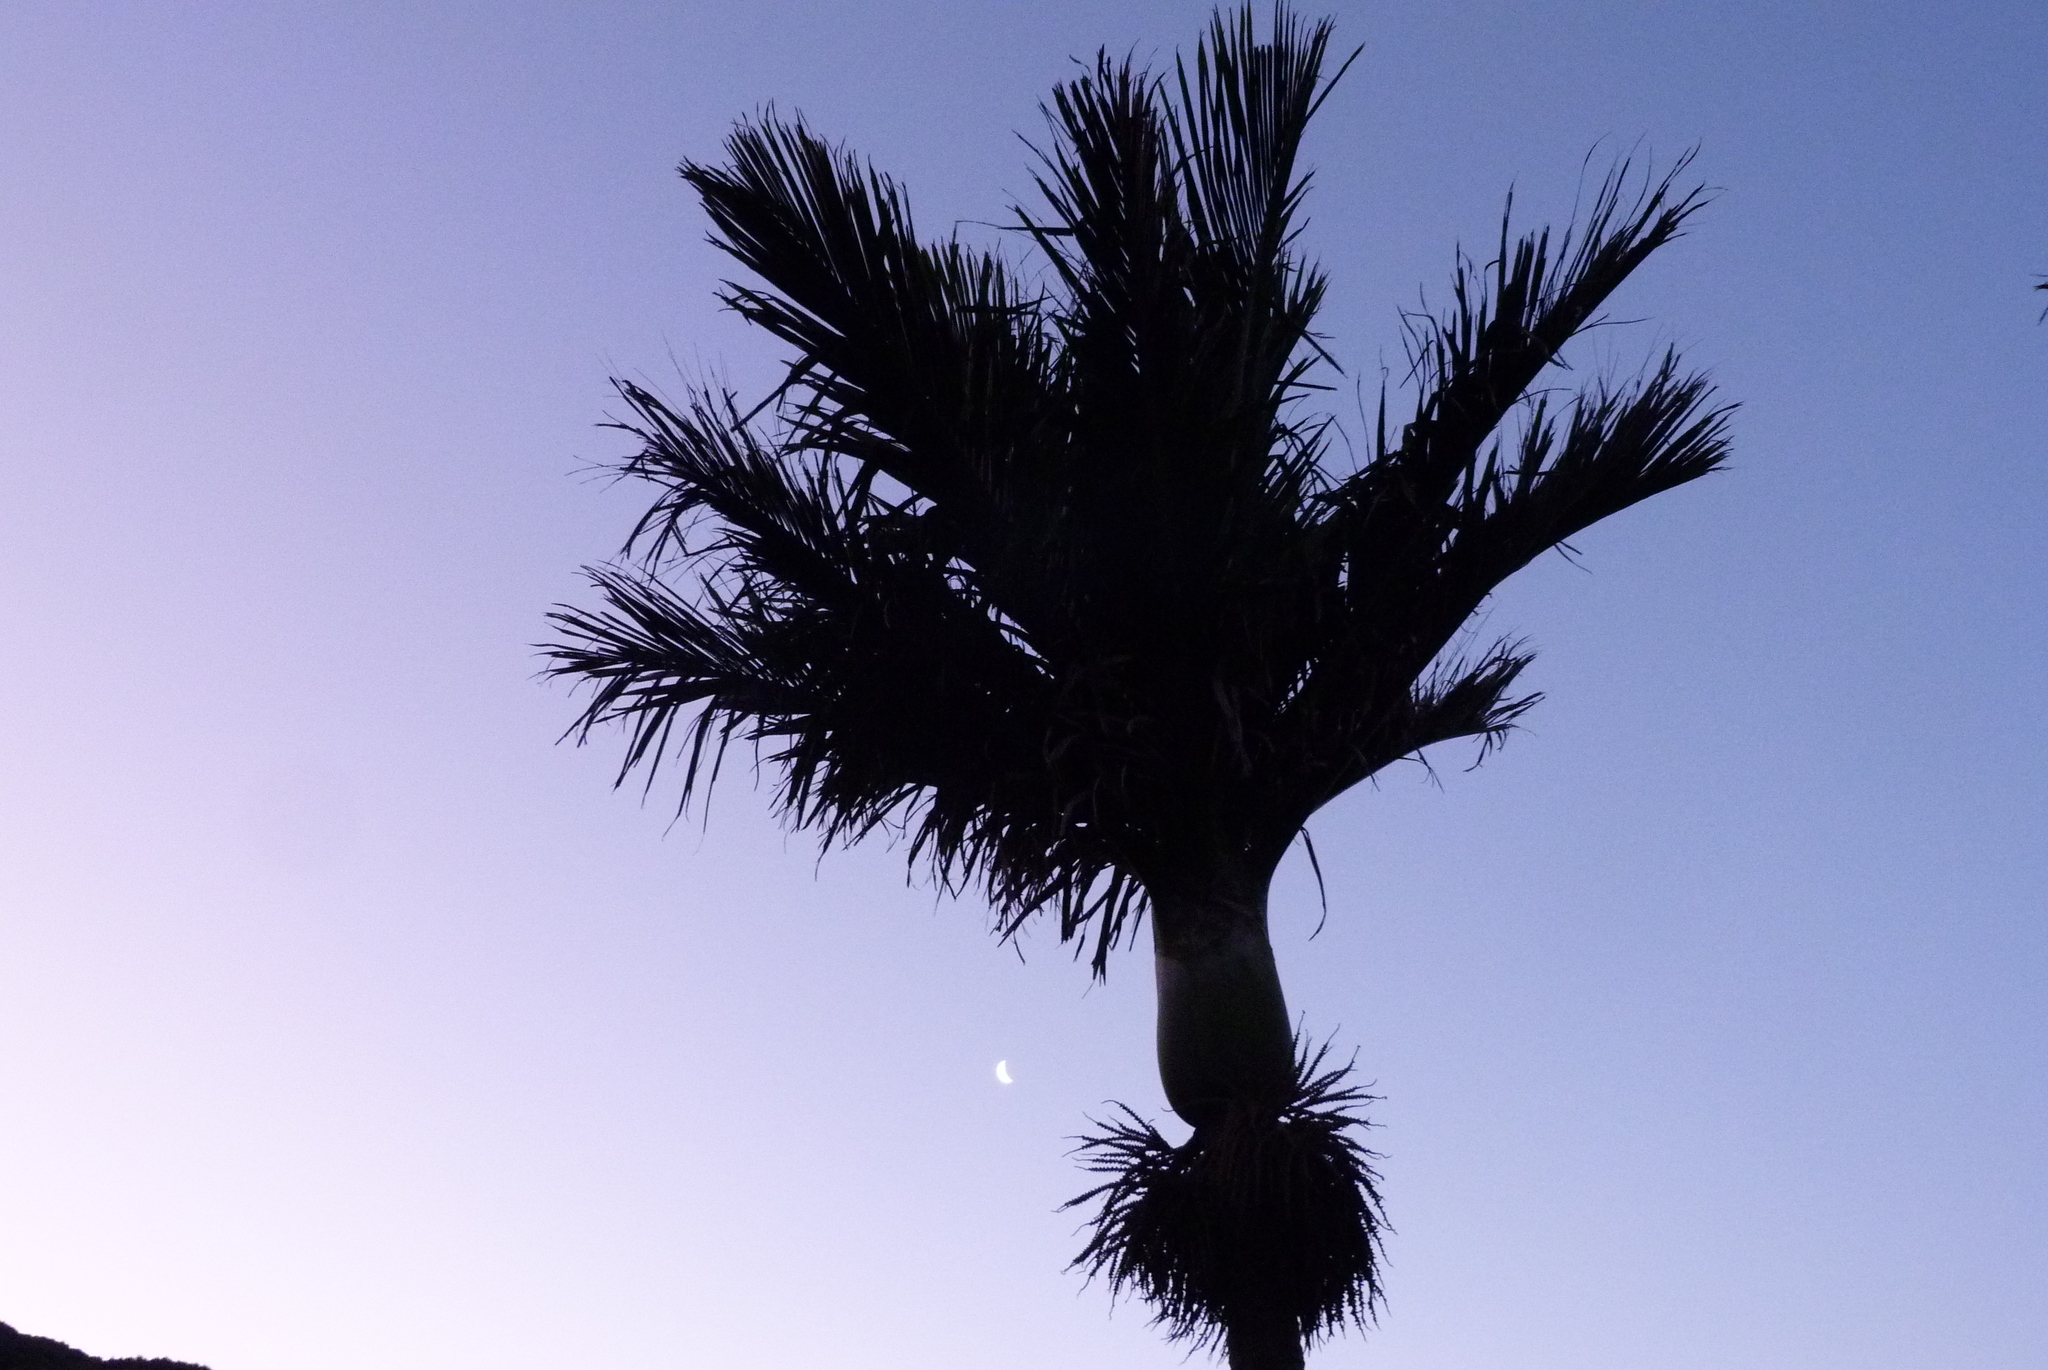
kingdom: Plantae
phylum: Tracheophyta
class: Liliopsida
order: Arecales
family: Arecaceae
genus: Rhopalostylis
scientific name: Rhopalostylis sapida
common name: Feather-duster palm
